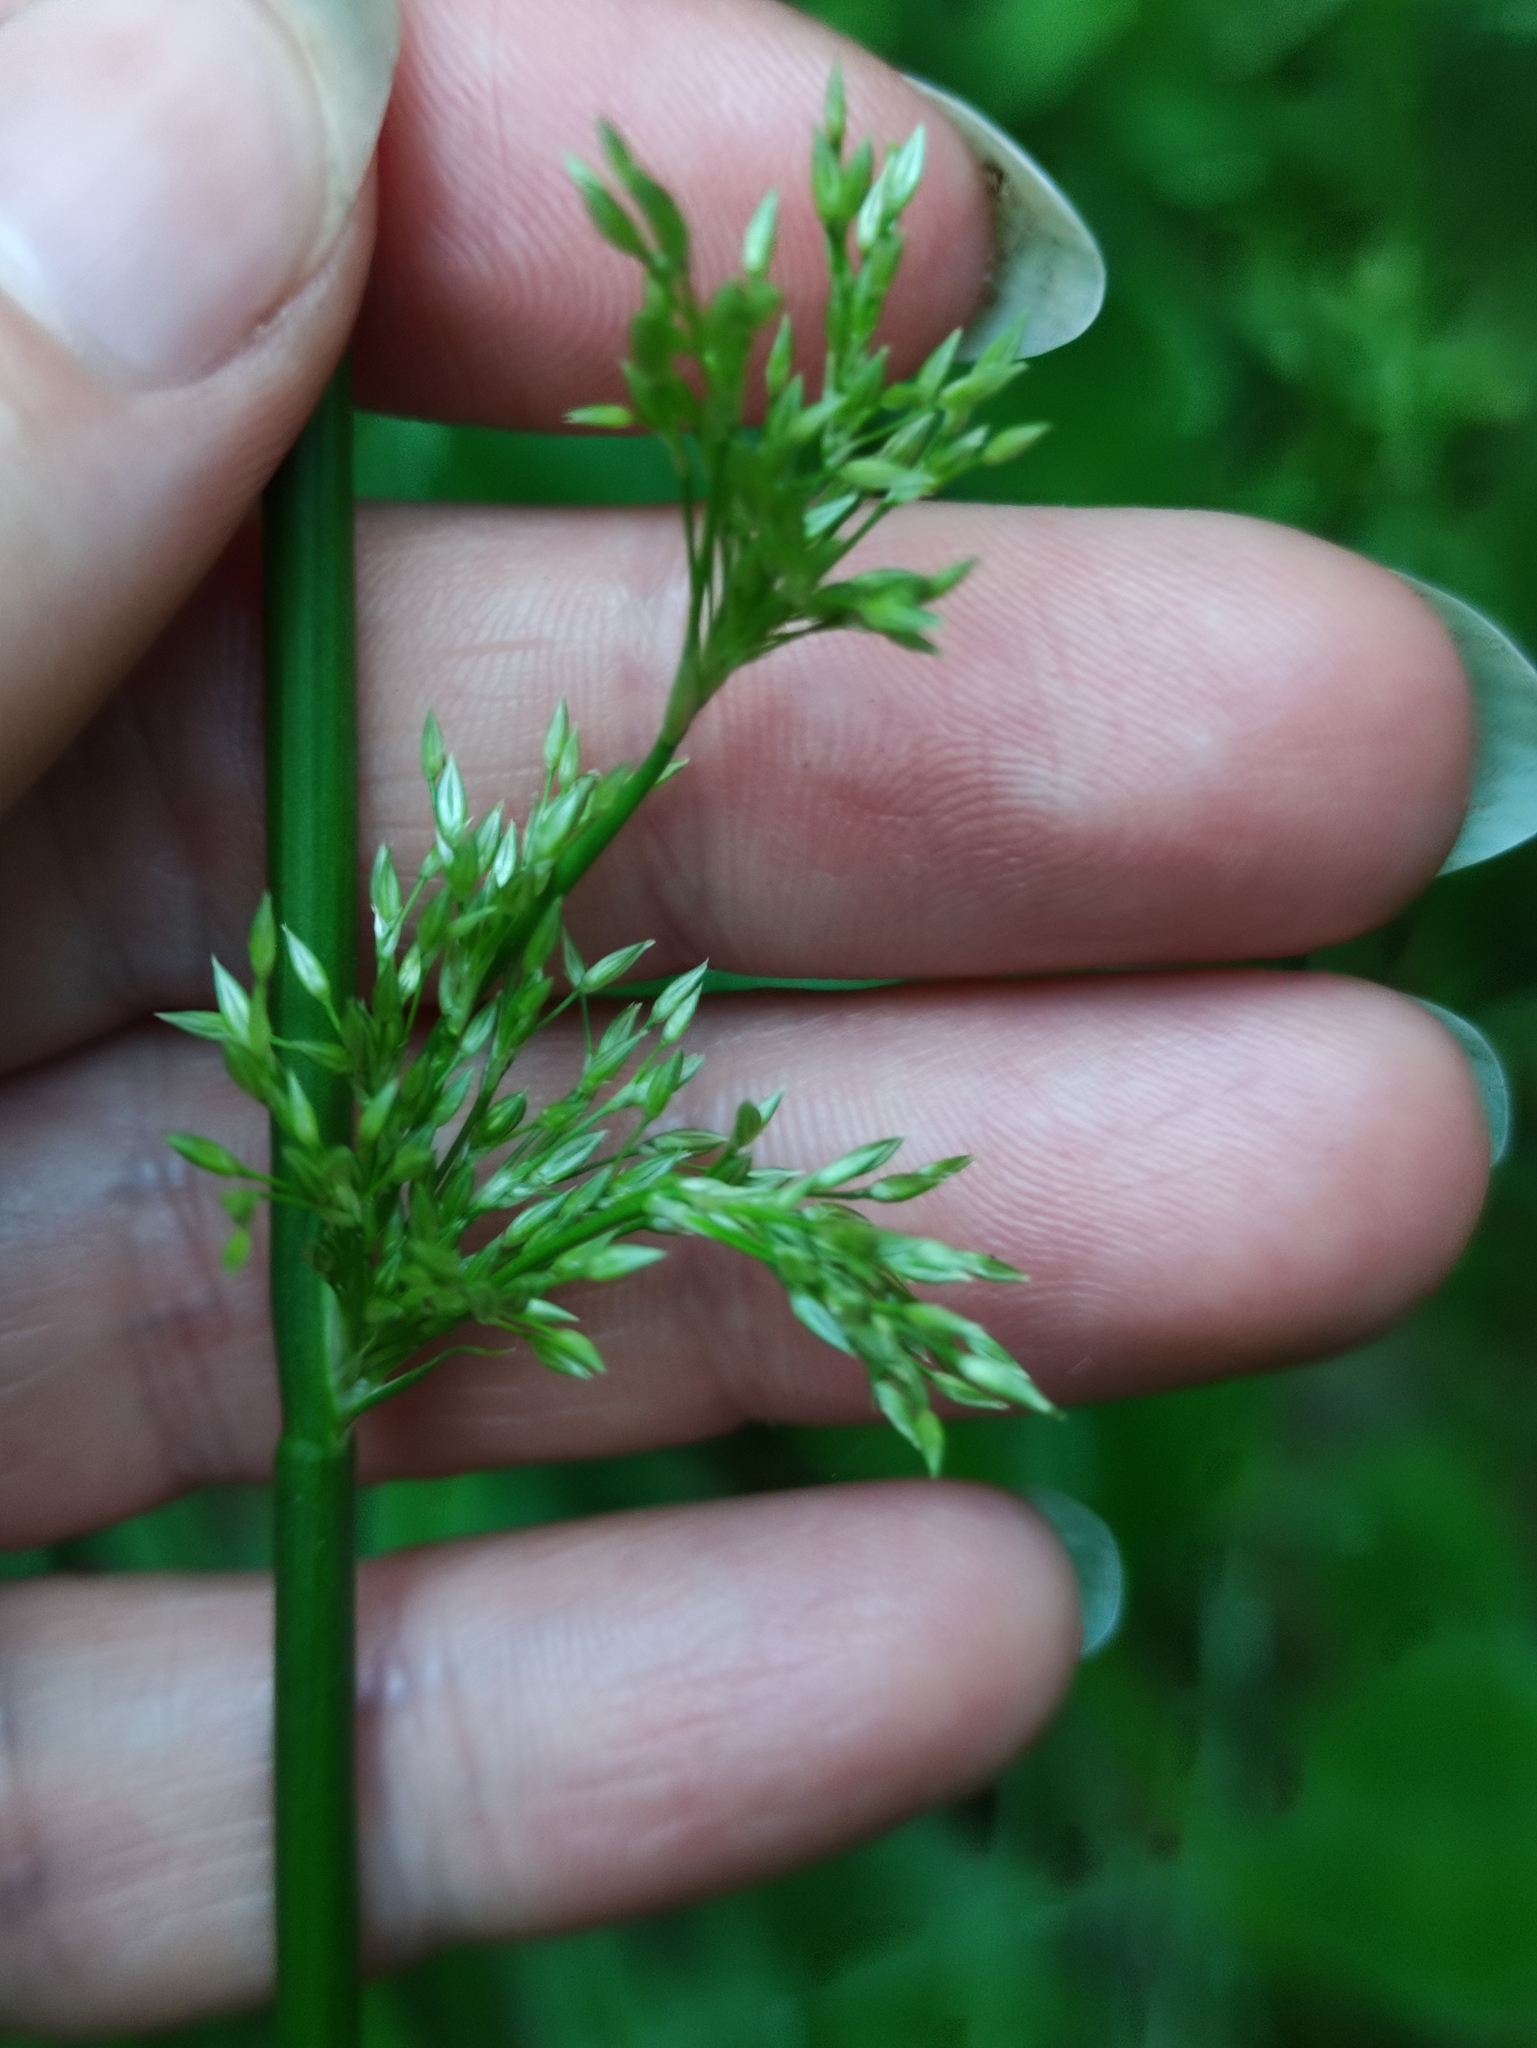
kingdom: Plantae
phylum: Tracheophyta
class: Liliopsida
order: Poales
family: Juncaceae
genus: Juncus
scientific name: Juncus effusus
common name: Soft rush
